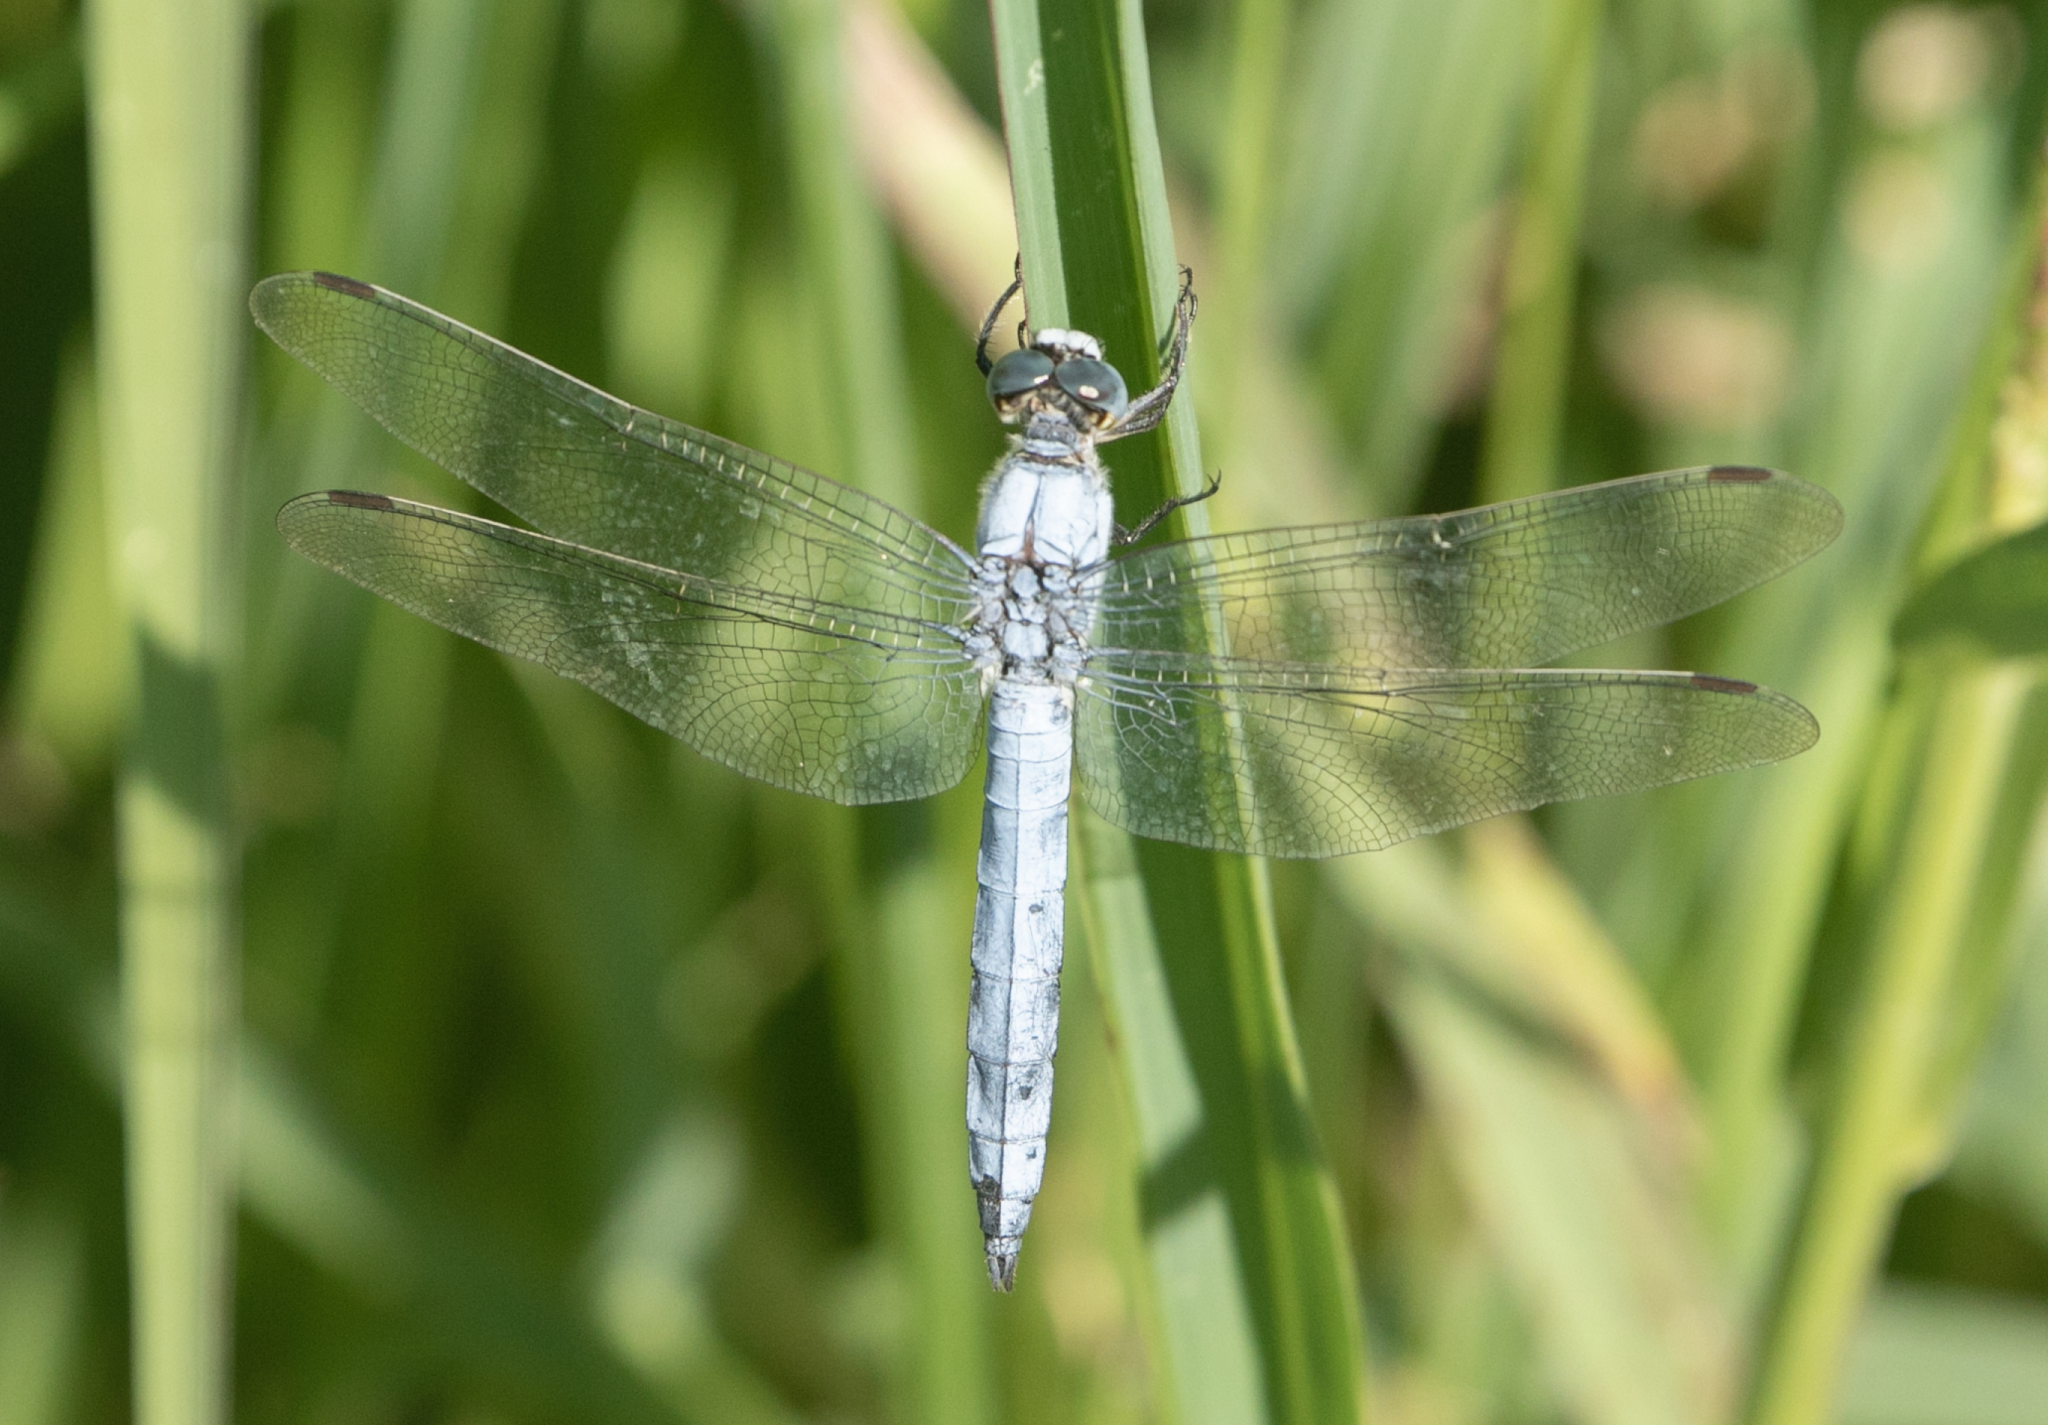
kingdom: Animalia
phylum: Arthropoda
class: Insecta
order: Odonata
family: Libellulidae
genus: Orthetrum
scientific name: Orthetrum brunneum
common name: Southern skimmer
